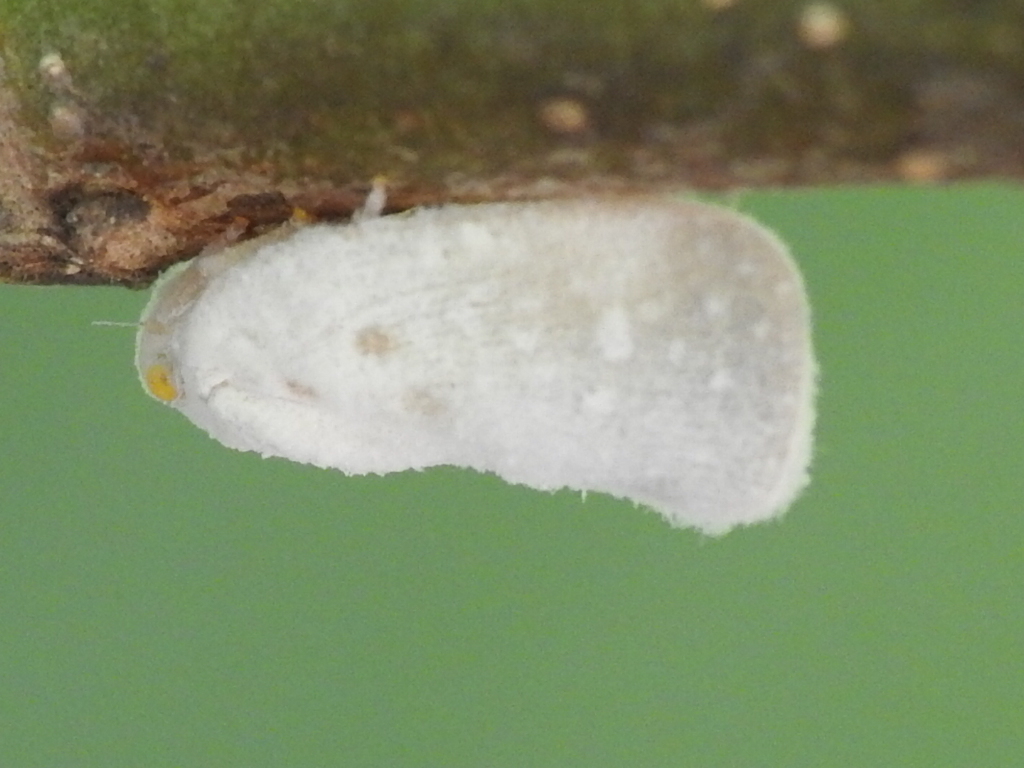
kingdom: Animalia
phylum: Arthropoda
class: Insecta
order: Hemiptera
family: Flatidae
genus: Metcalfa
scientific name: Metcalfa pruinosa
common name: Citrus flatid planthopper
